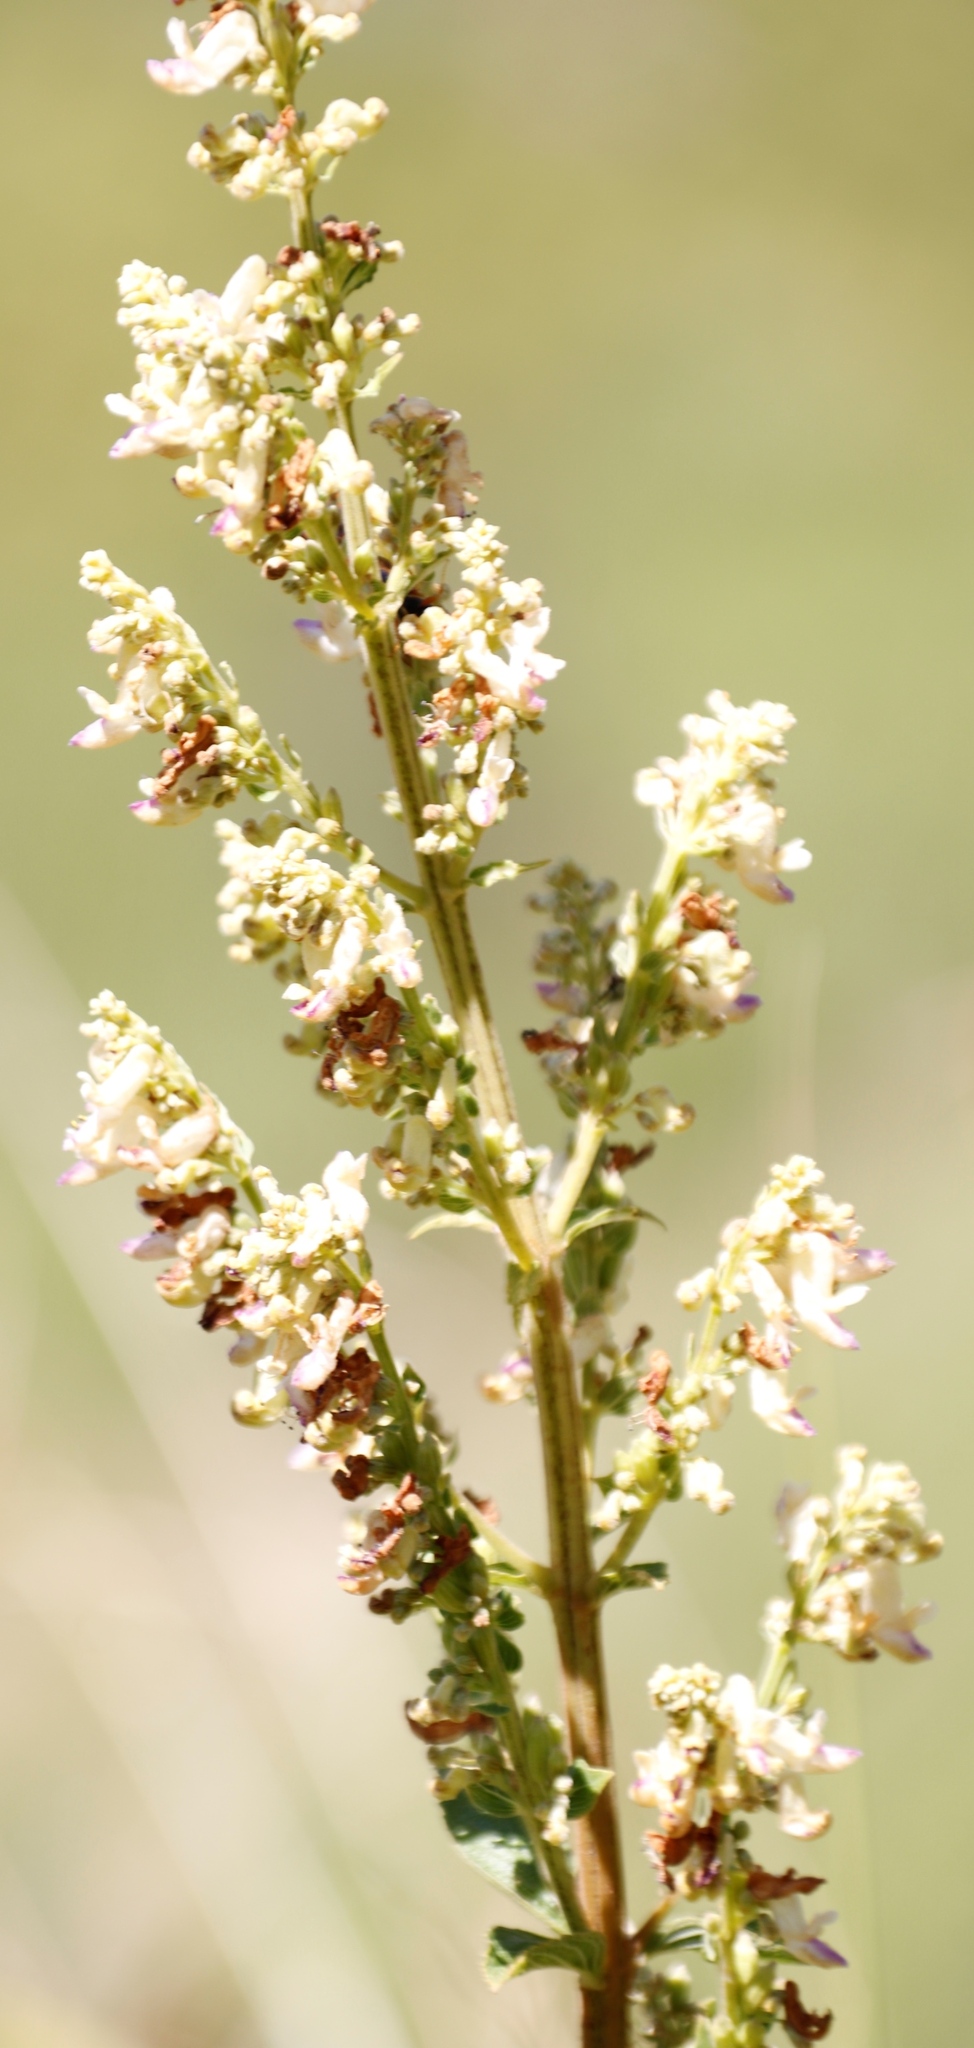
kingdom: Plantae
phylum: Tracheophyta
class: Magnoliopsida
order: Lamiales
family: Lamiaceae
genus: Coleus
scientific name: Coleus calycinus
